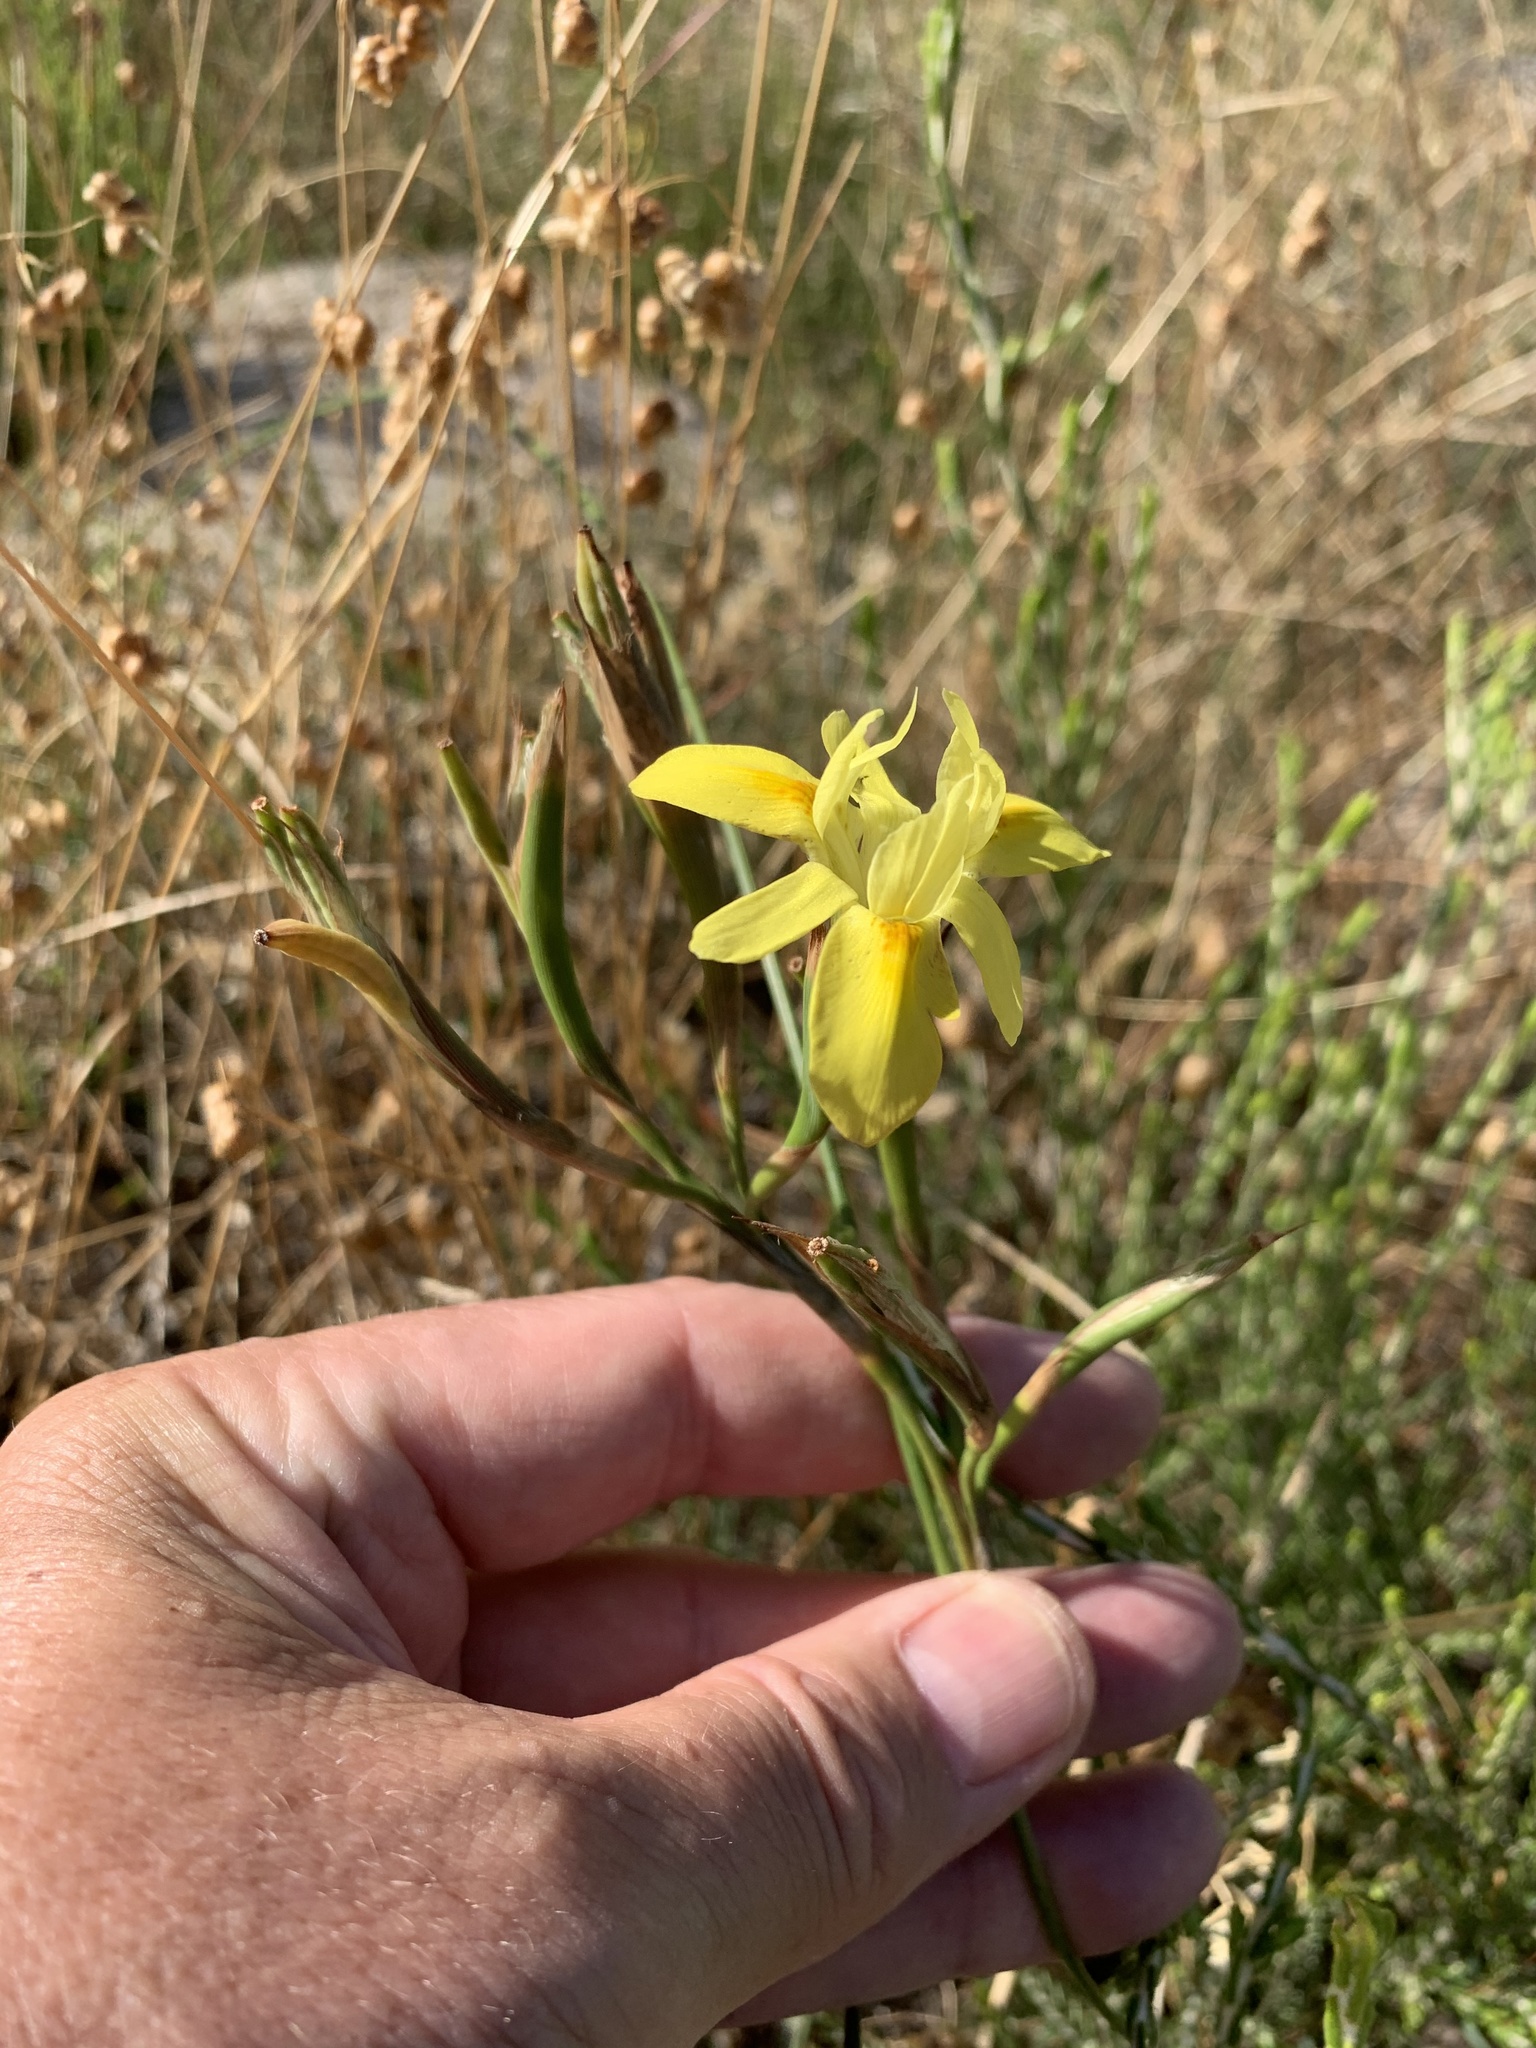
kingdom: Plantae
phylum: Tracheophyta
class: Liliopsida
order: Asparagales
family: Iridaceae
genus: Moraea
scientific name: Moraea fugax
